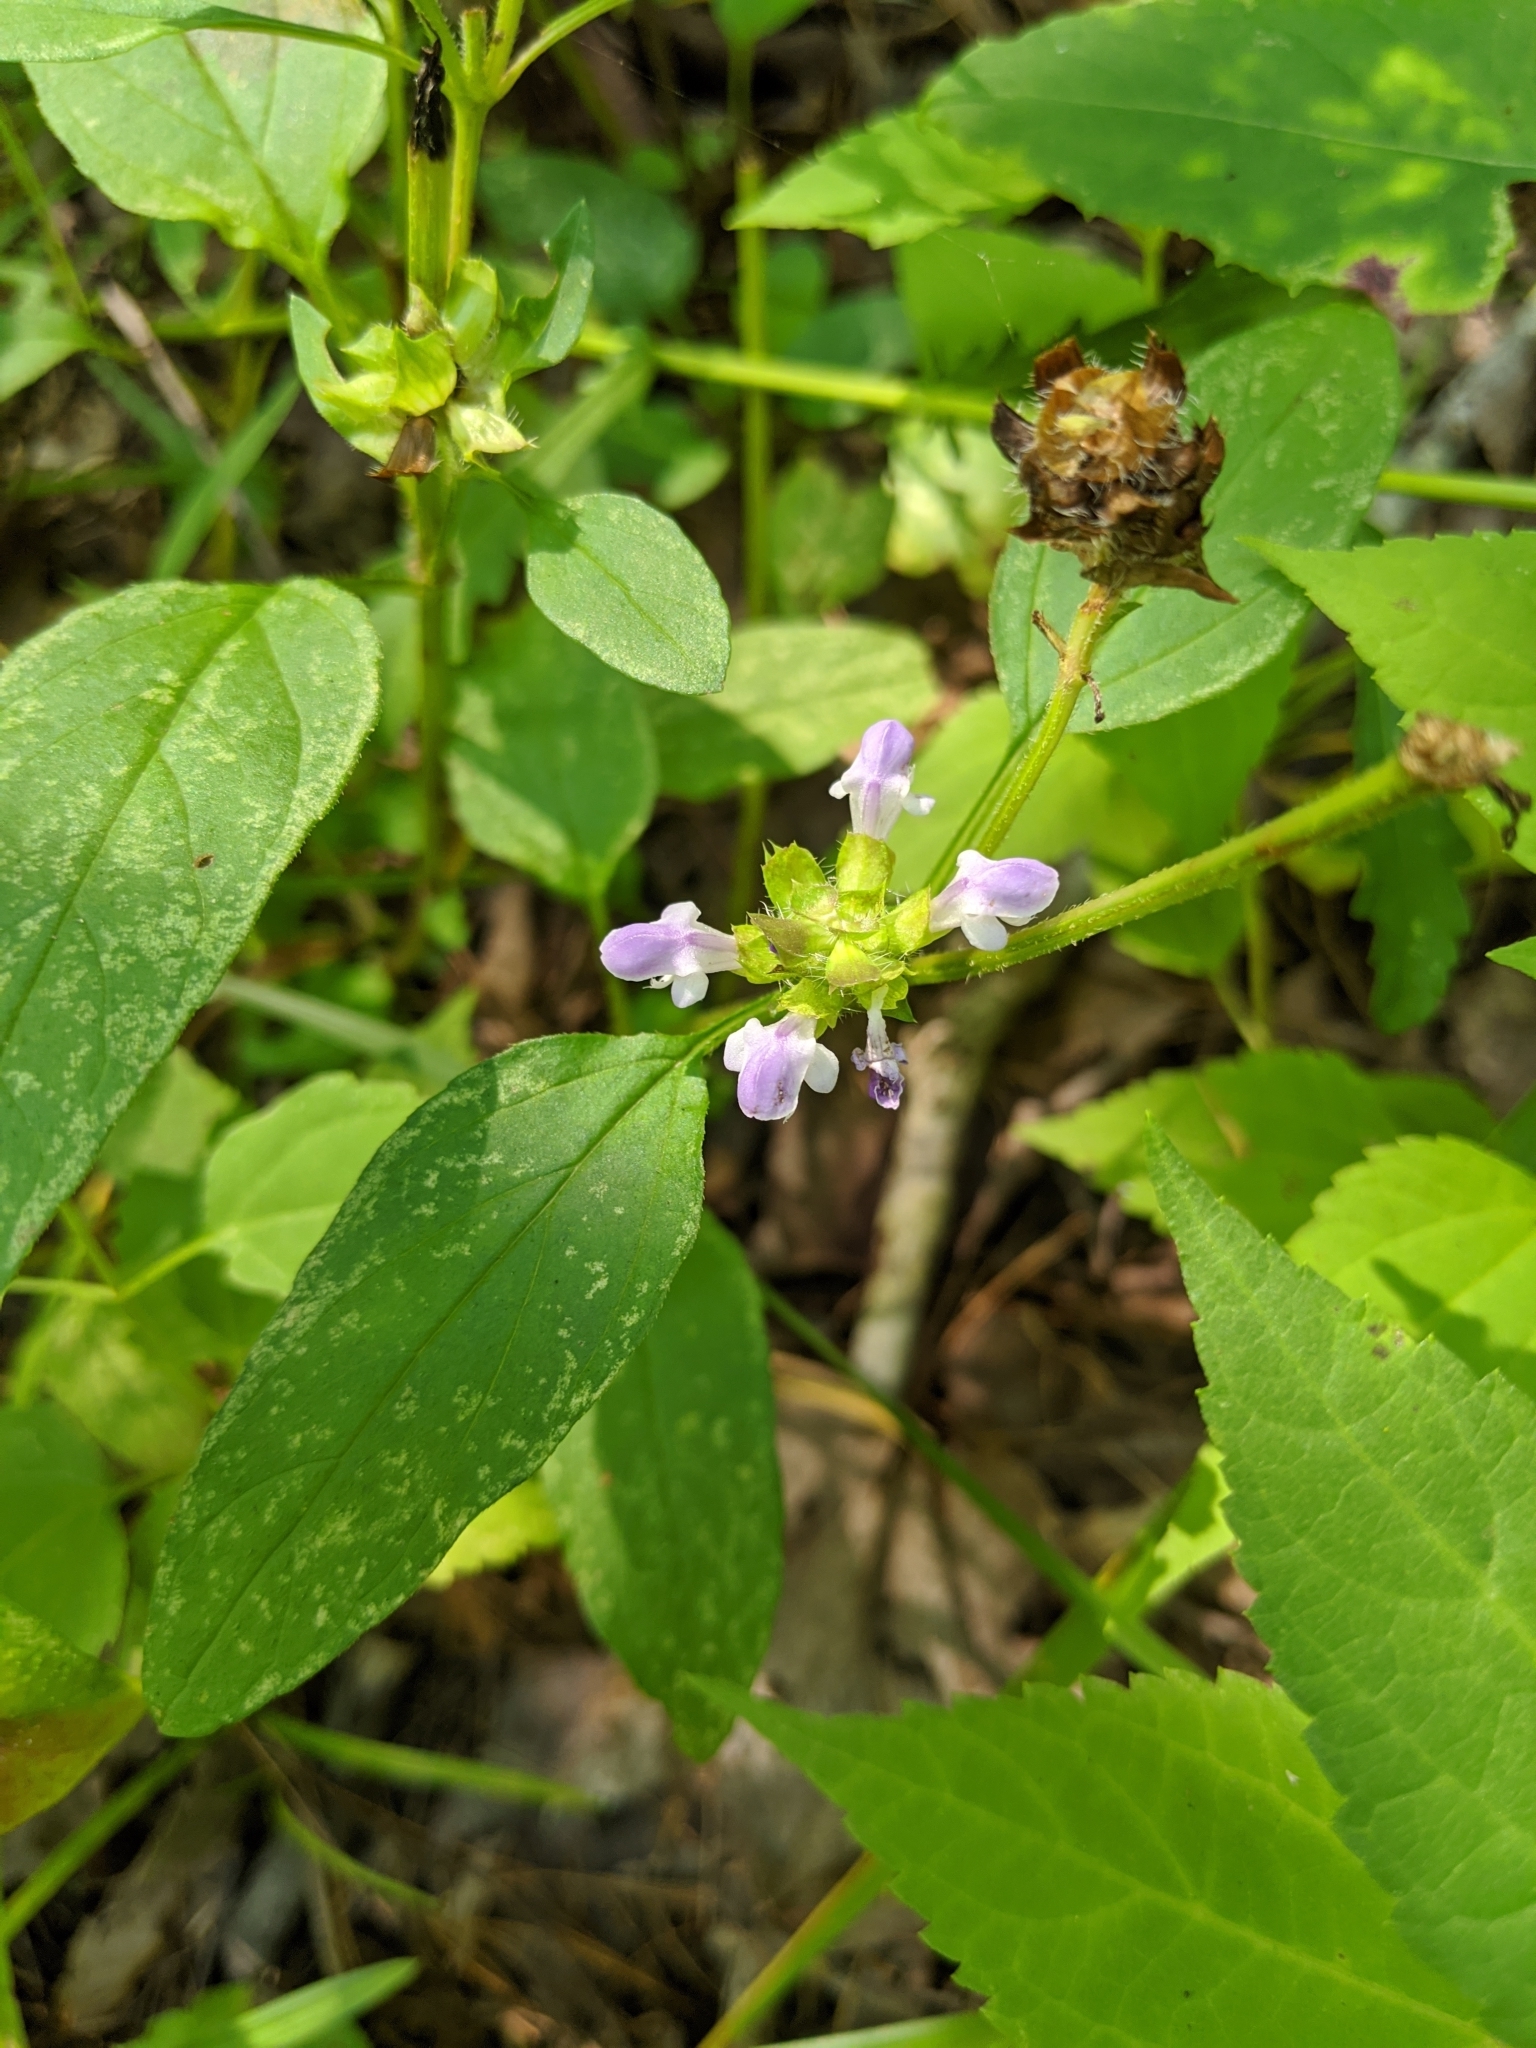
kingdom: Plantae
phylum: Tracheophyta
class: Magnoliopsida
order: Lamiales
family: Lamiaceae
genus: Prunella
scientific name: Prunella vulgaris
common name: Heal-all
